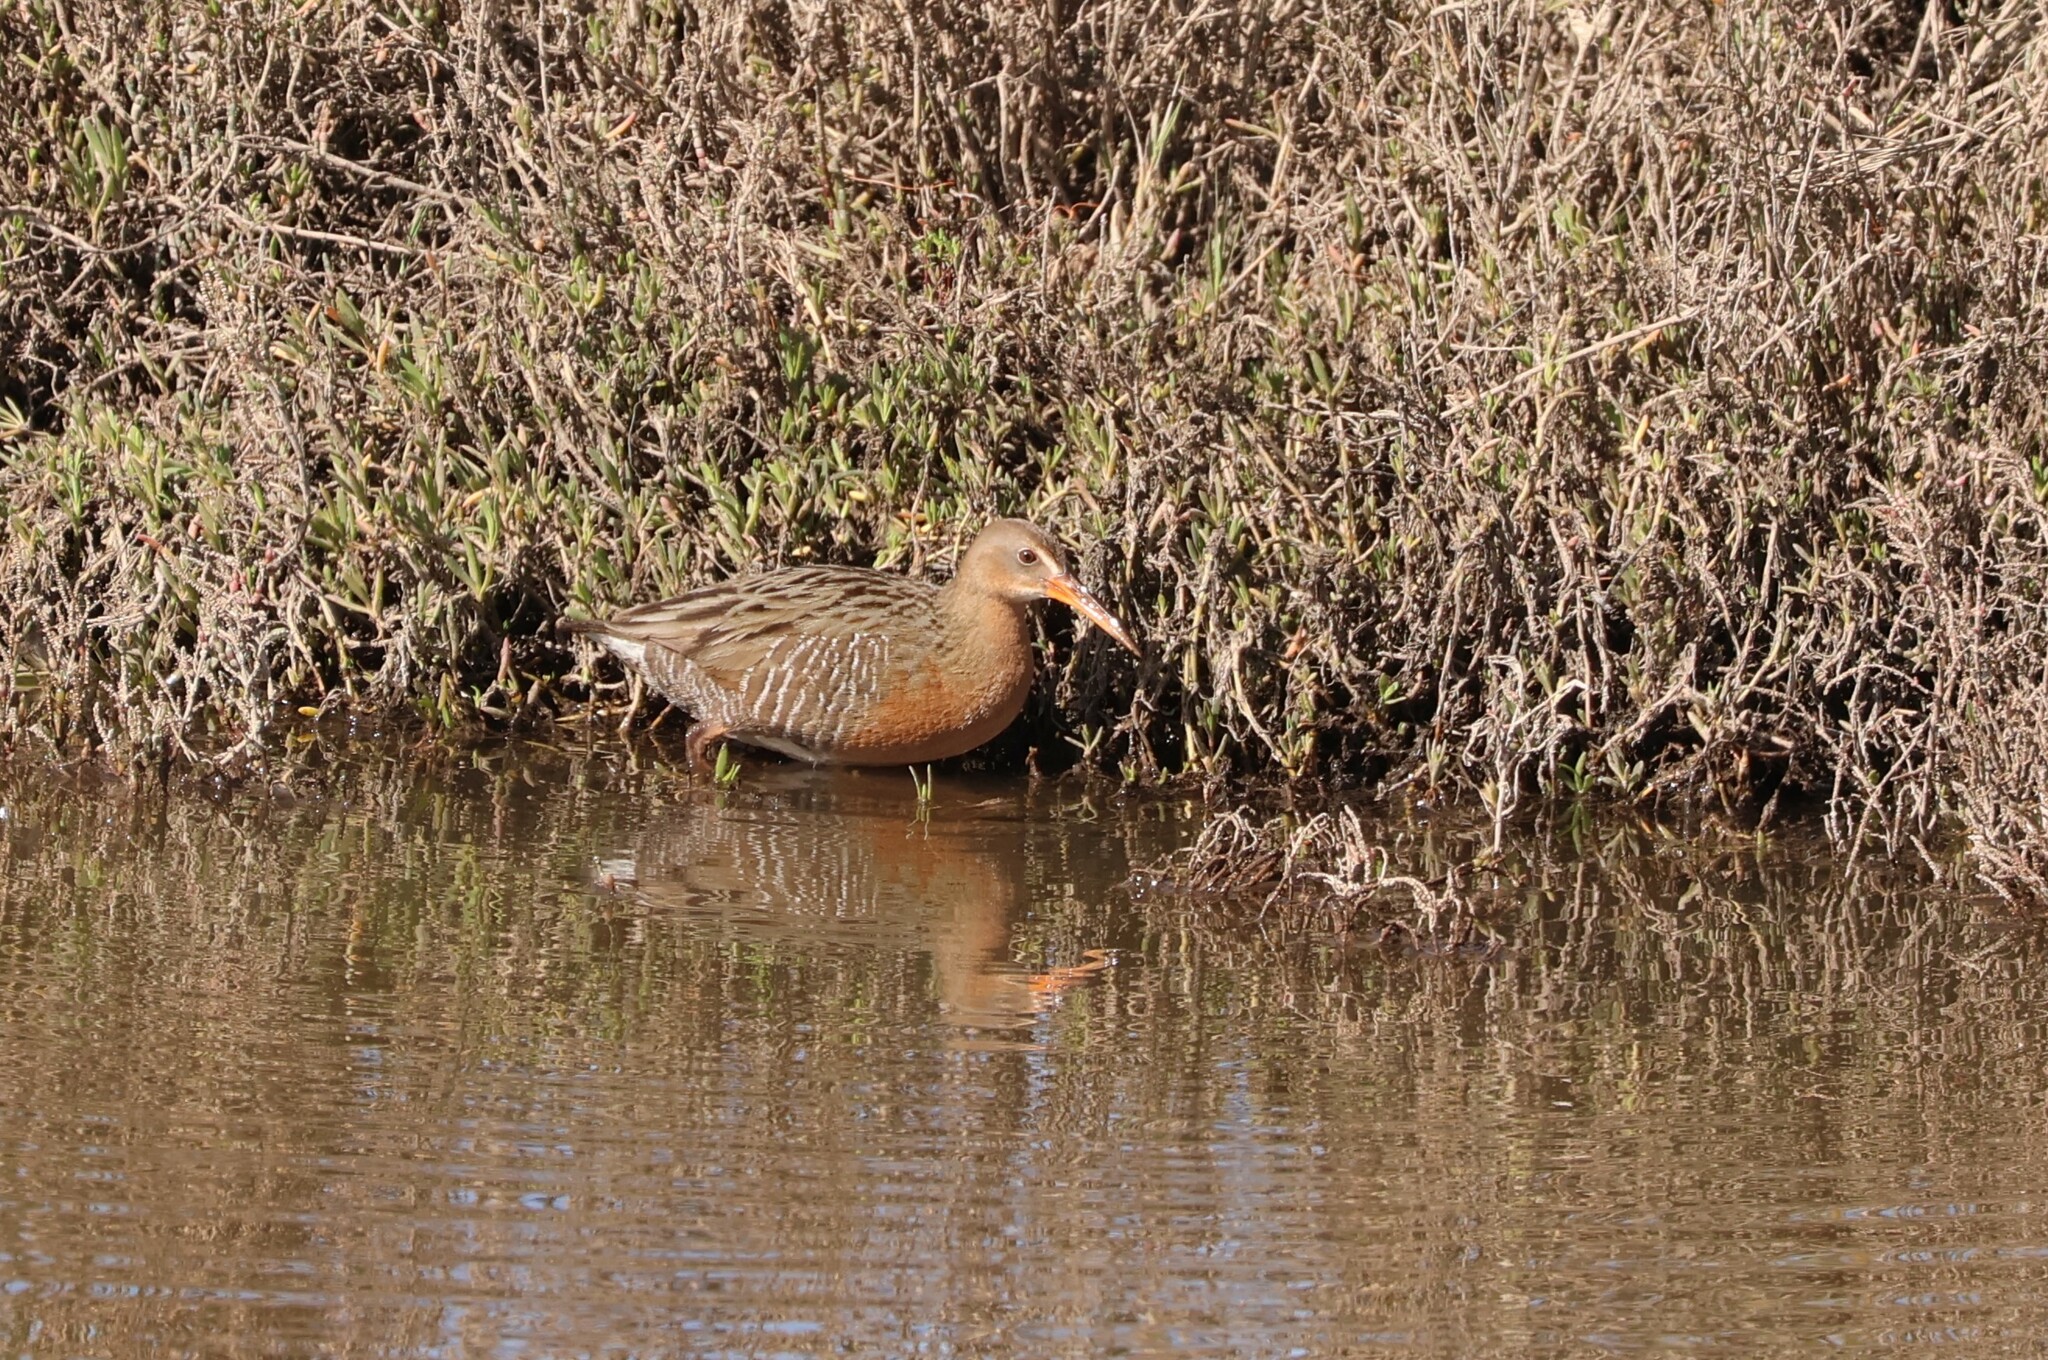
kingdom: Animalia
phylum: Chordata
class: Aves
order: Gruiformes
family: Rallidae
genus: Rallus
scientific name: Rallus obsoletus
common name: Ridgway's rail
